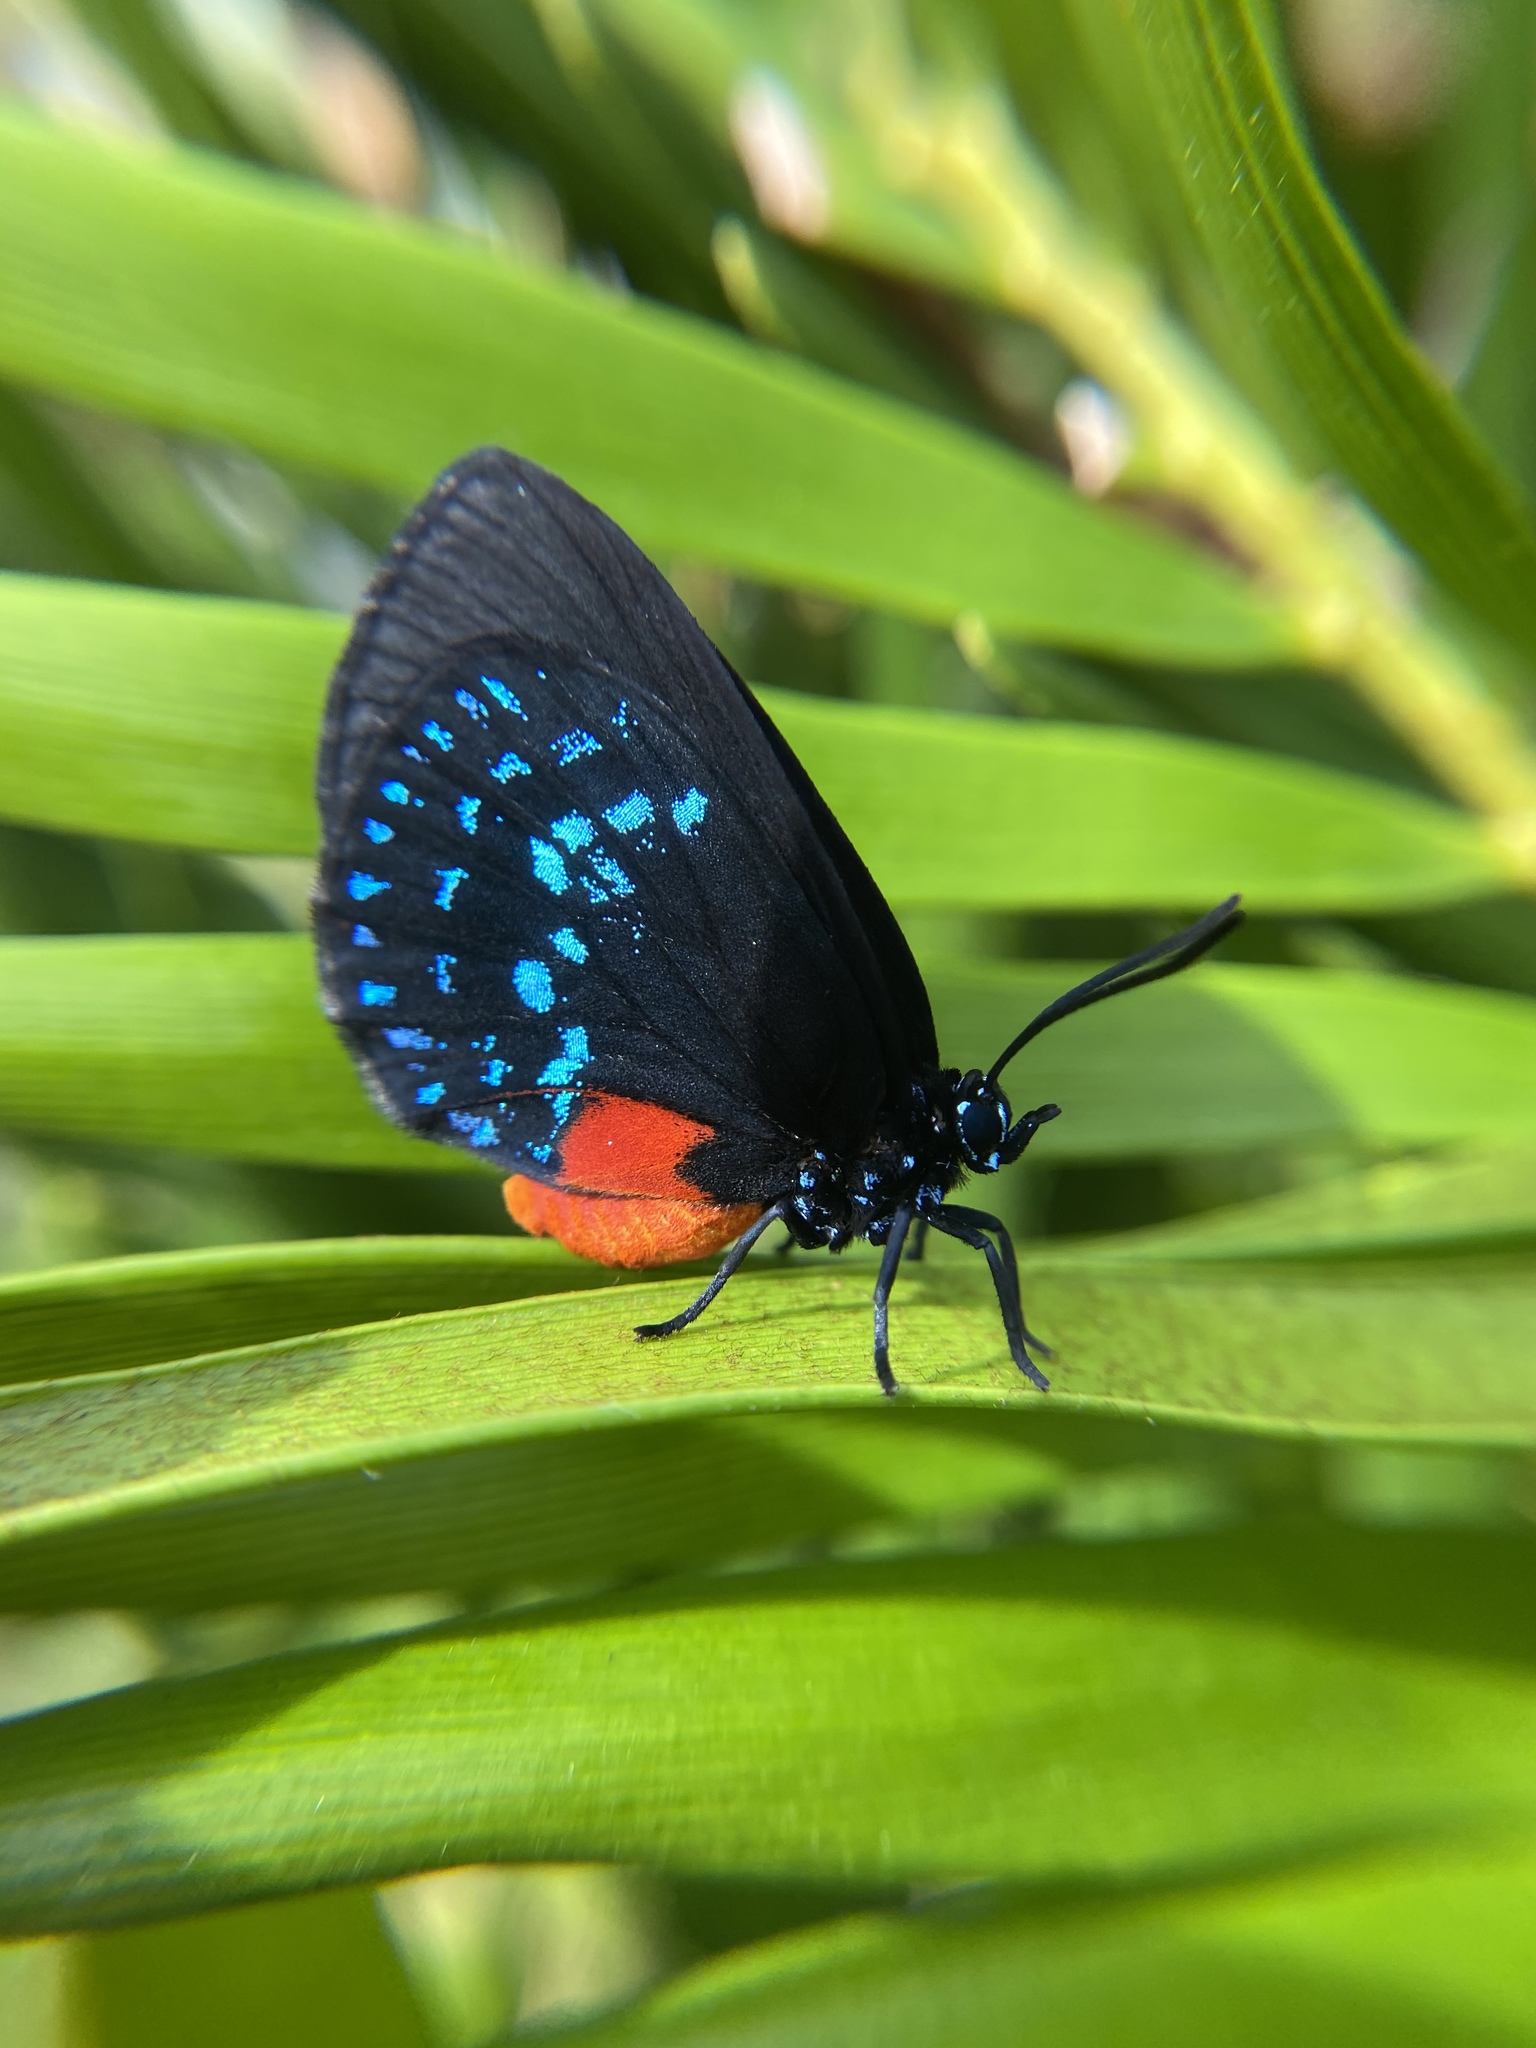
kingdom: Animalia
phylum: Arthropoda
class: Insecta
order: Lepidoptera
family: Lycaenidae
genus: Eumaeus
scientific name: Eumaeus atala
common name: Atala
